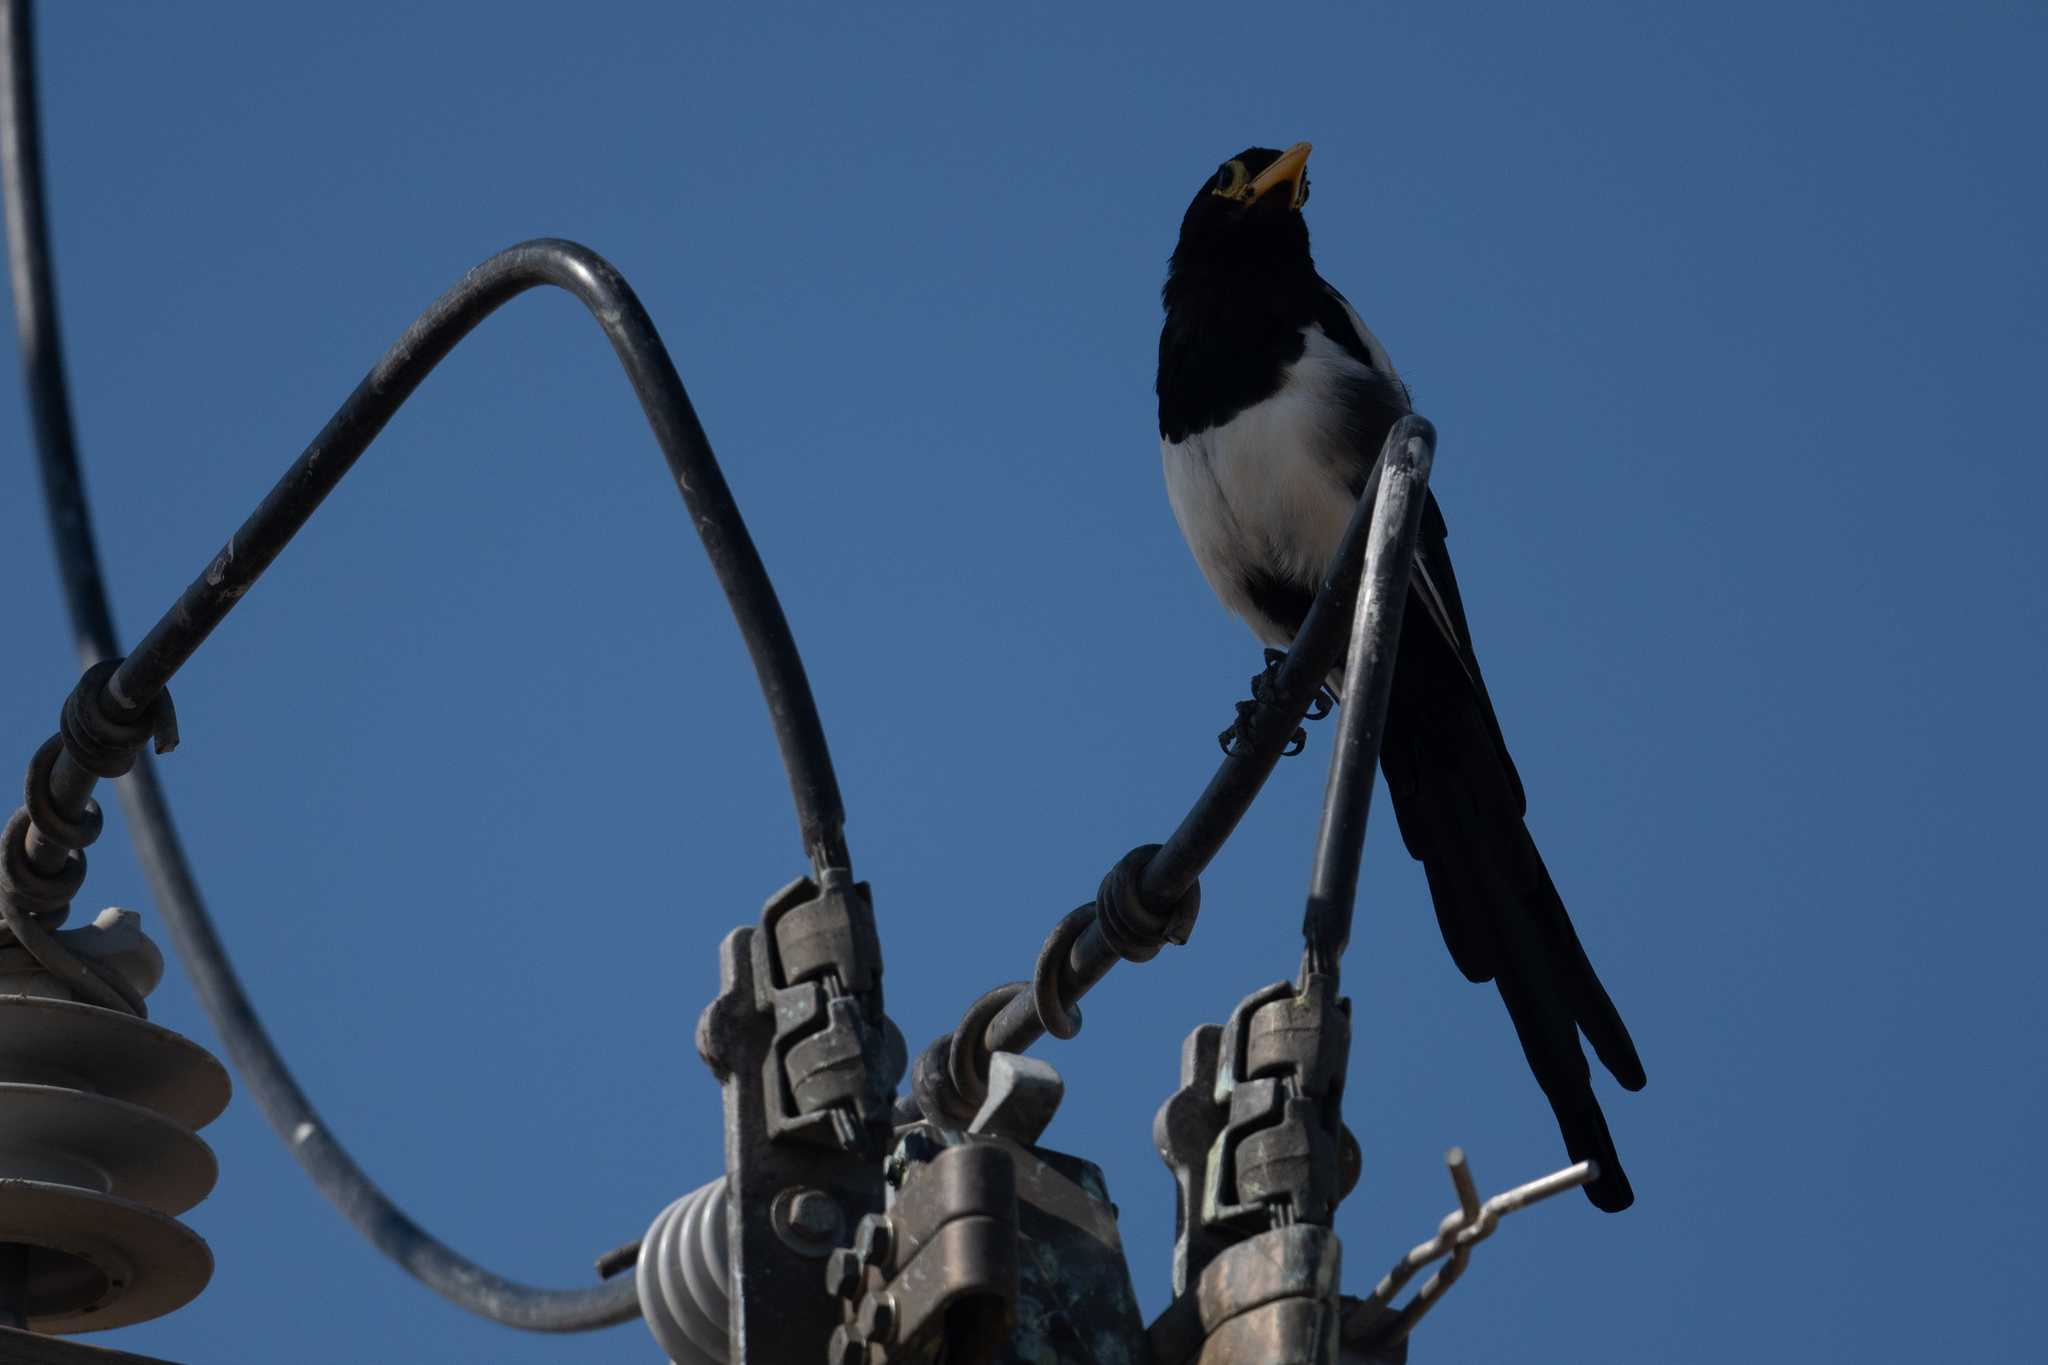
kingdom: Animalia
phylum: Chordata
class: Aves
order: Passeriformes
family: Corvidae
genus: Pica
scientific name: Pica nuttalli
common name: Yellow-billed magpie
